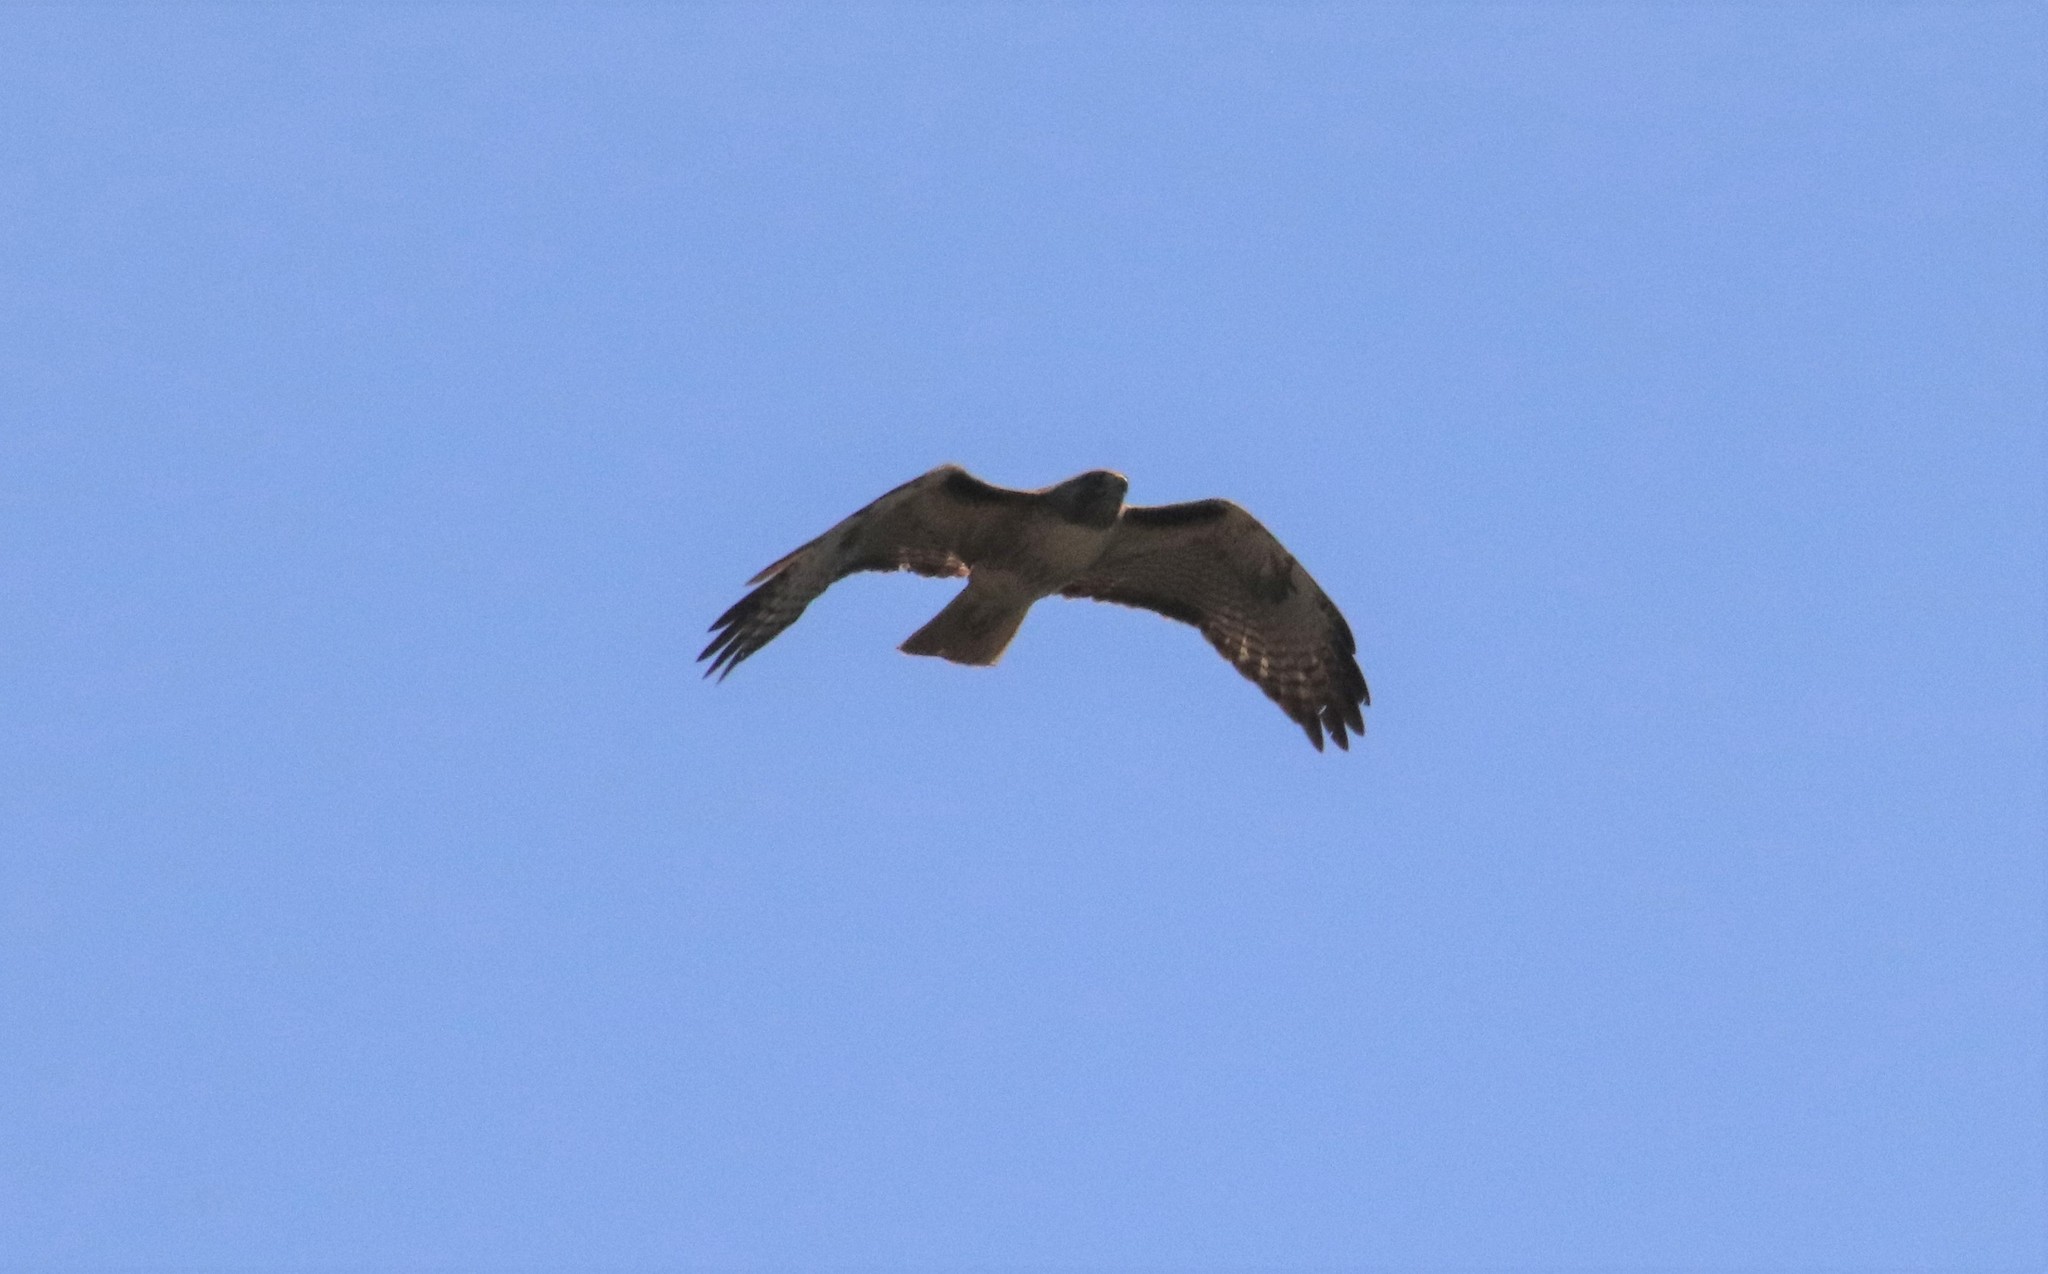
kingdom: Animalia
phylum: Chordata
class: Aves
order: Accipitriformes
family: Accipitridae
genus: Buteo
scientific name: Buteo jamaicensis
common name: Red-tailed hawk
